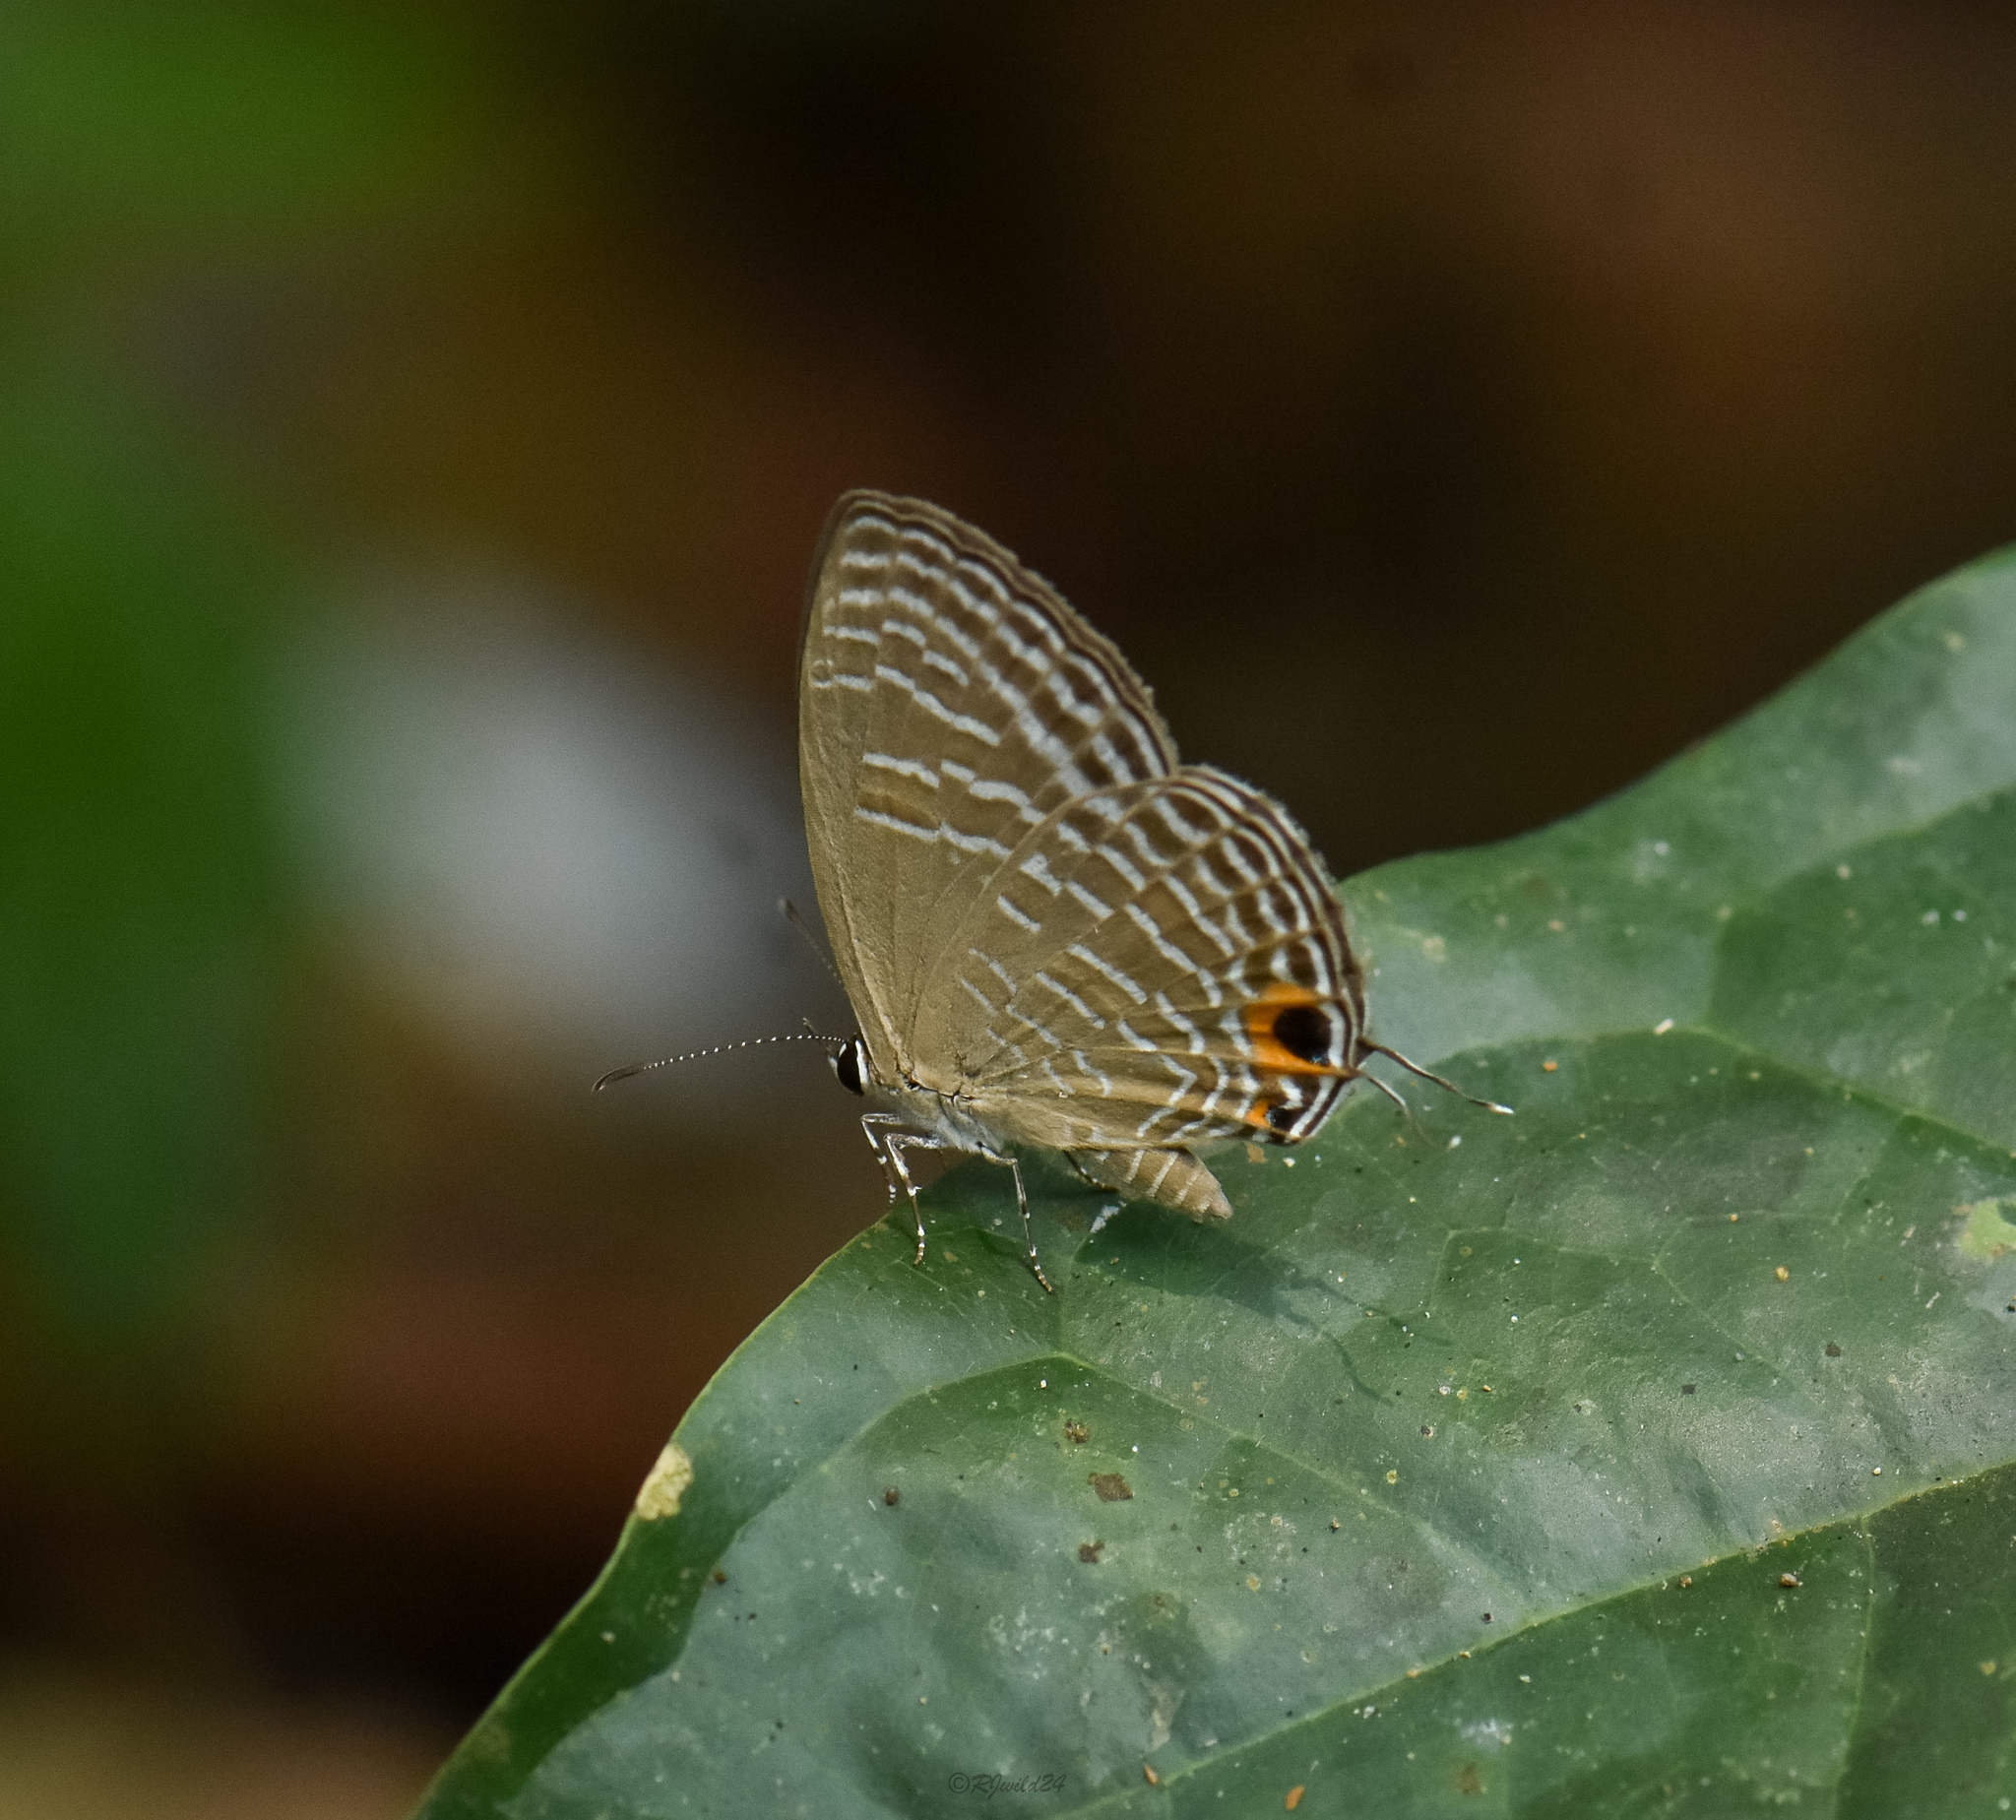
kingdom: Animalia
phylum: Arthropoda
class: Insecta
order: Lepidoptera
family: Lycaenidae
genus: Jamides
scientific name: Jamides alecto
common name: Metallic cerulean
